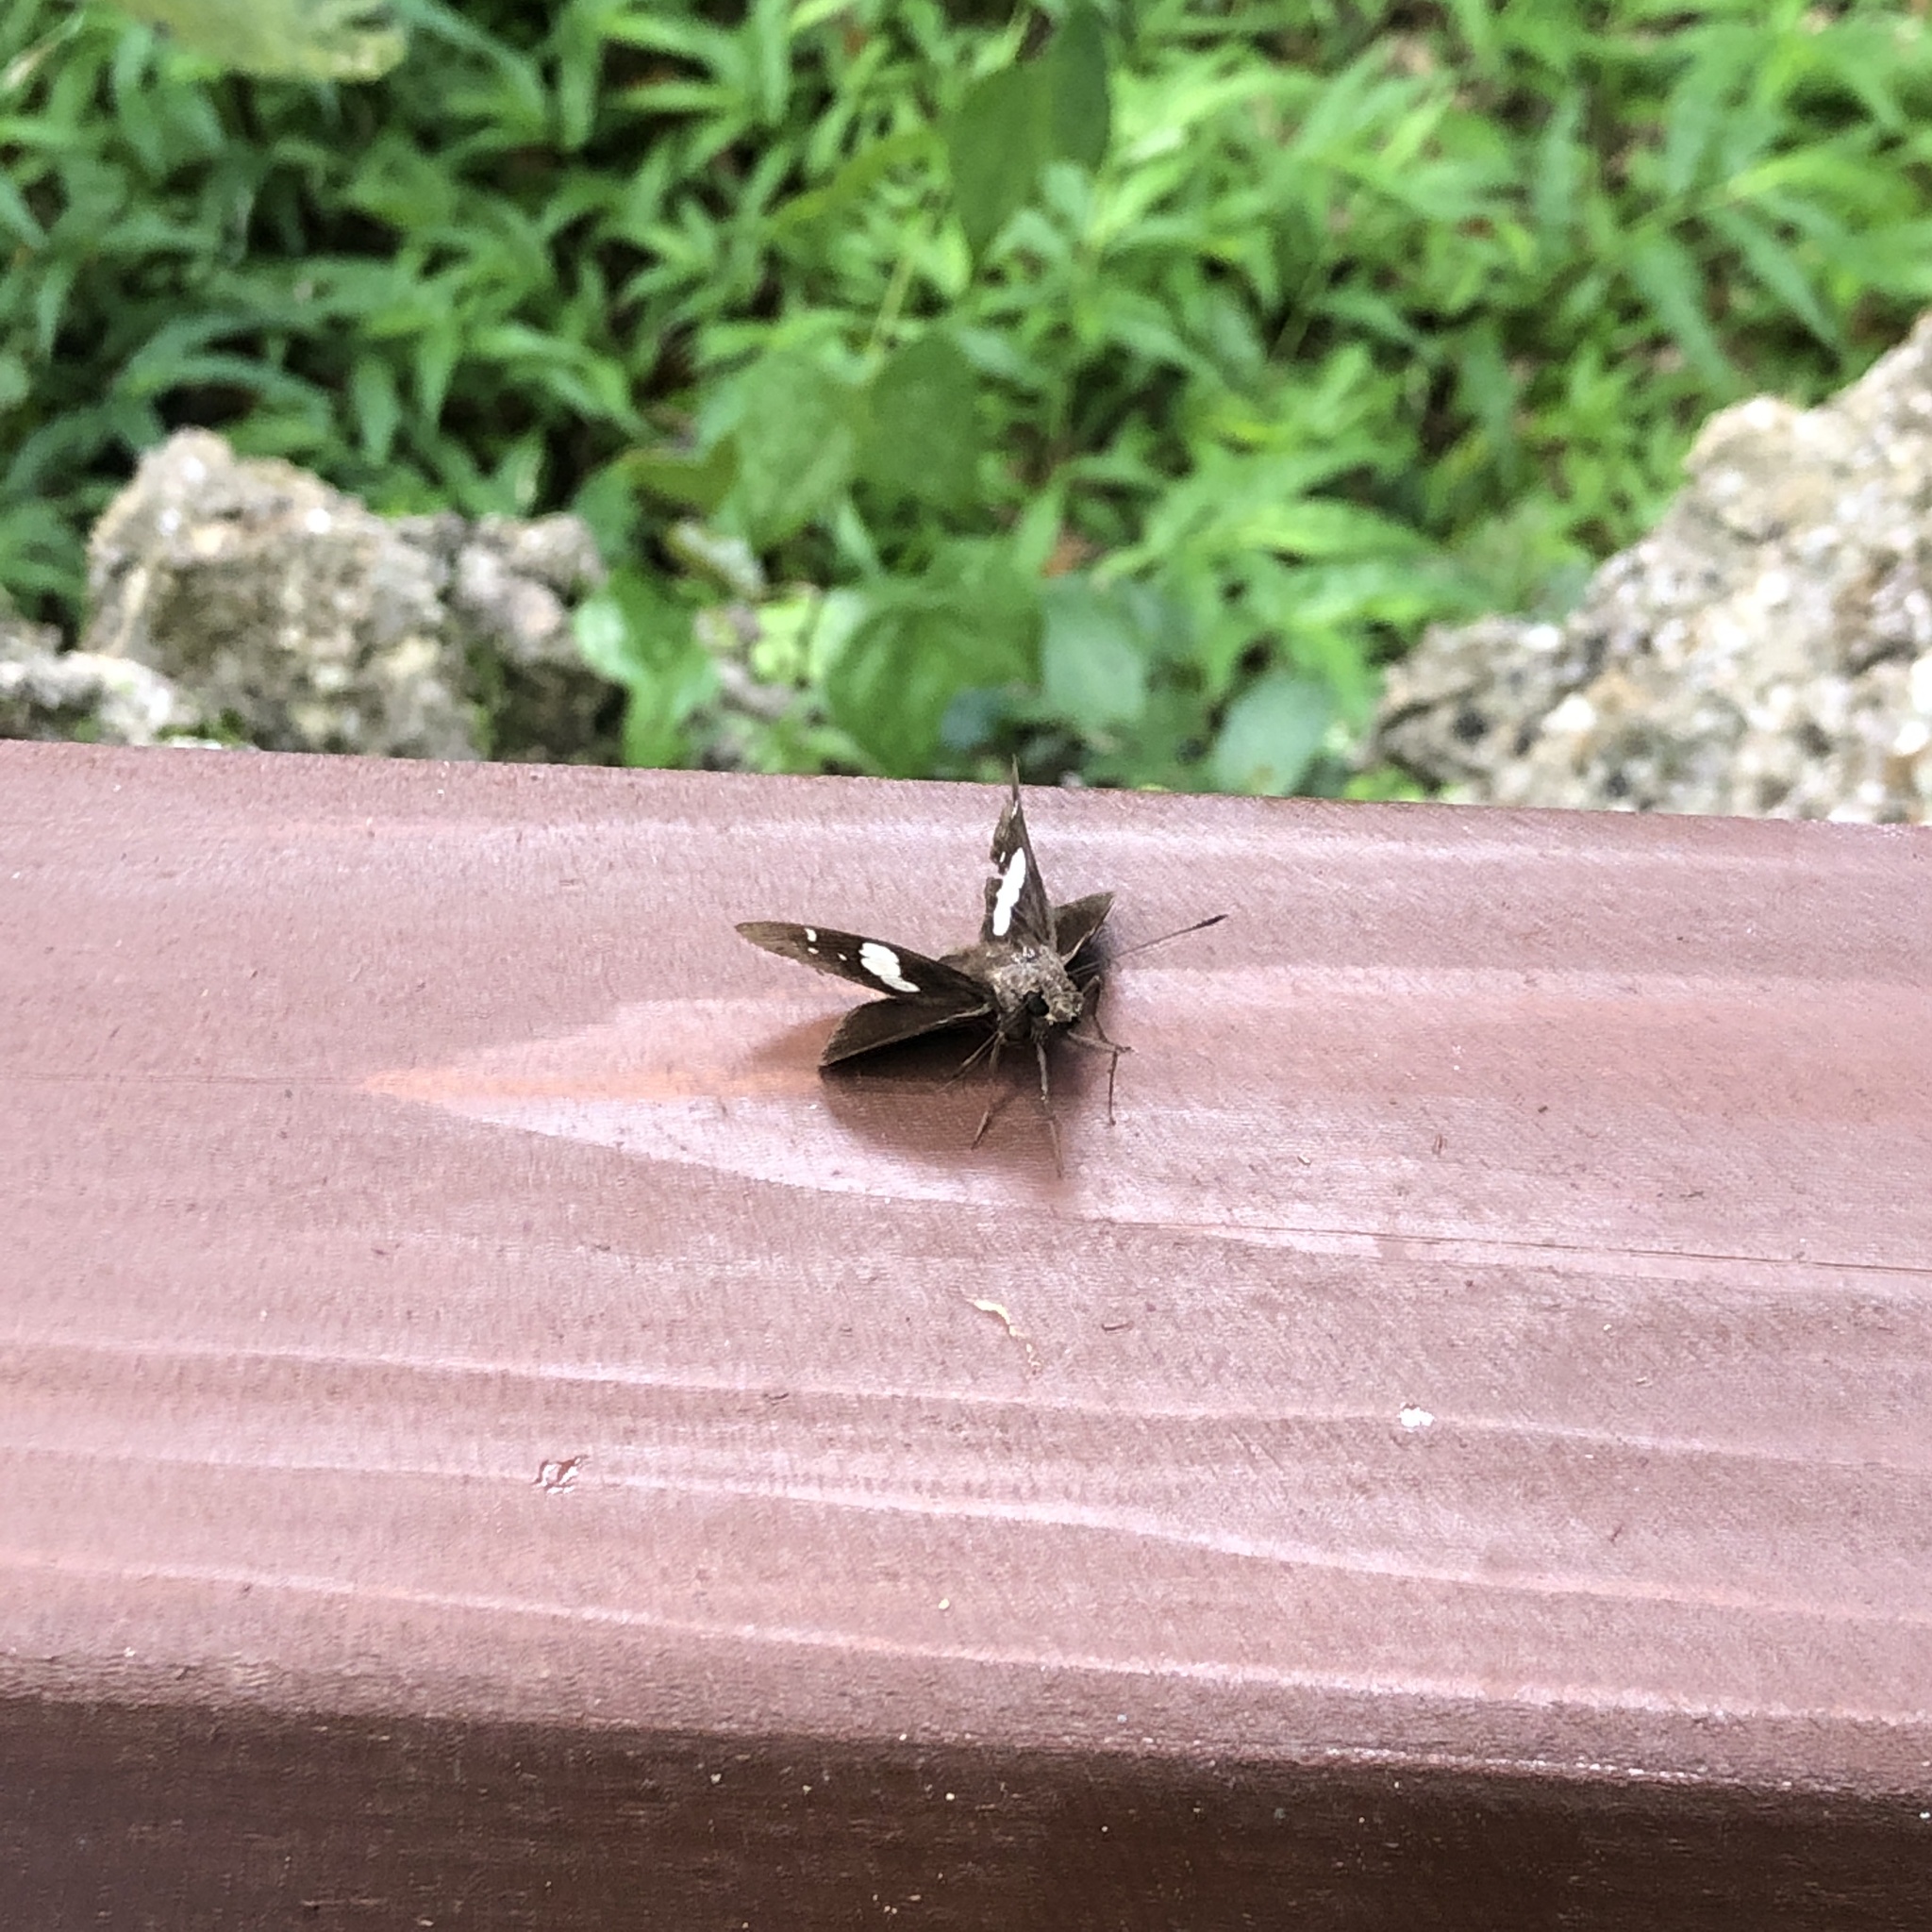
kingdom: Animalia
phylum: Arthropoda
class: Insecta
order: Lepidoptera
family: Hesperiidae
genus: Notocrypta
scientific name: Notocrypta curvifascia
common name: Restricted demon
